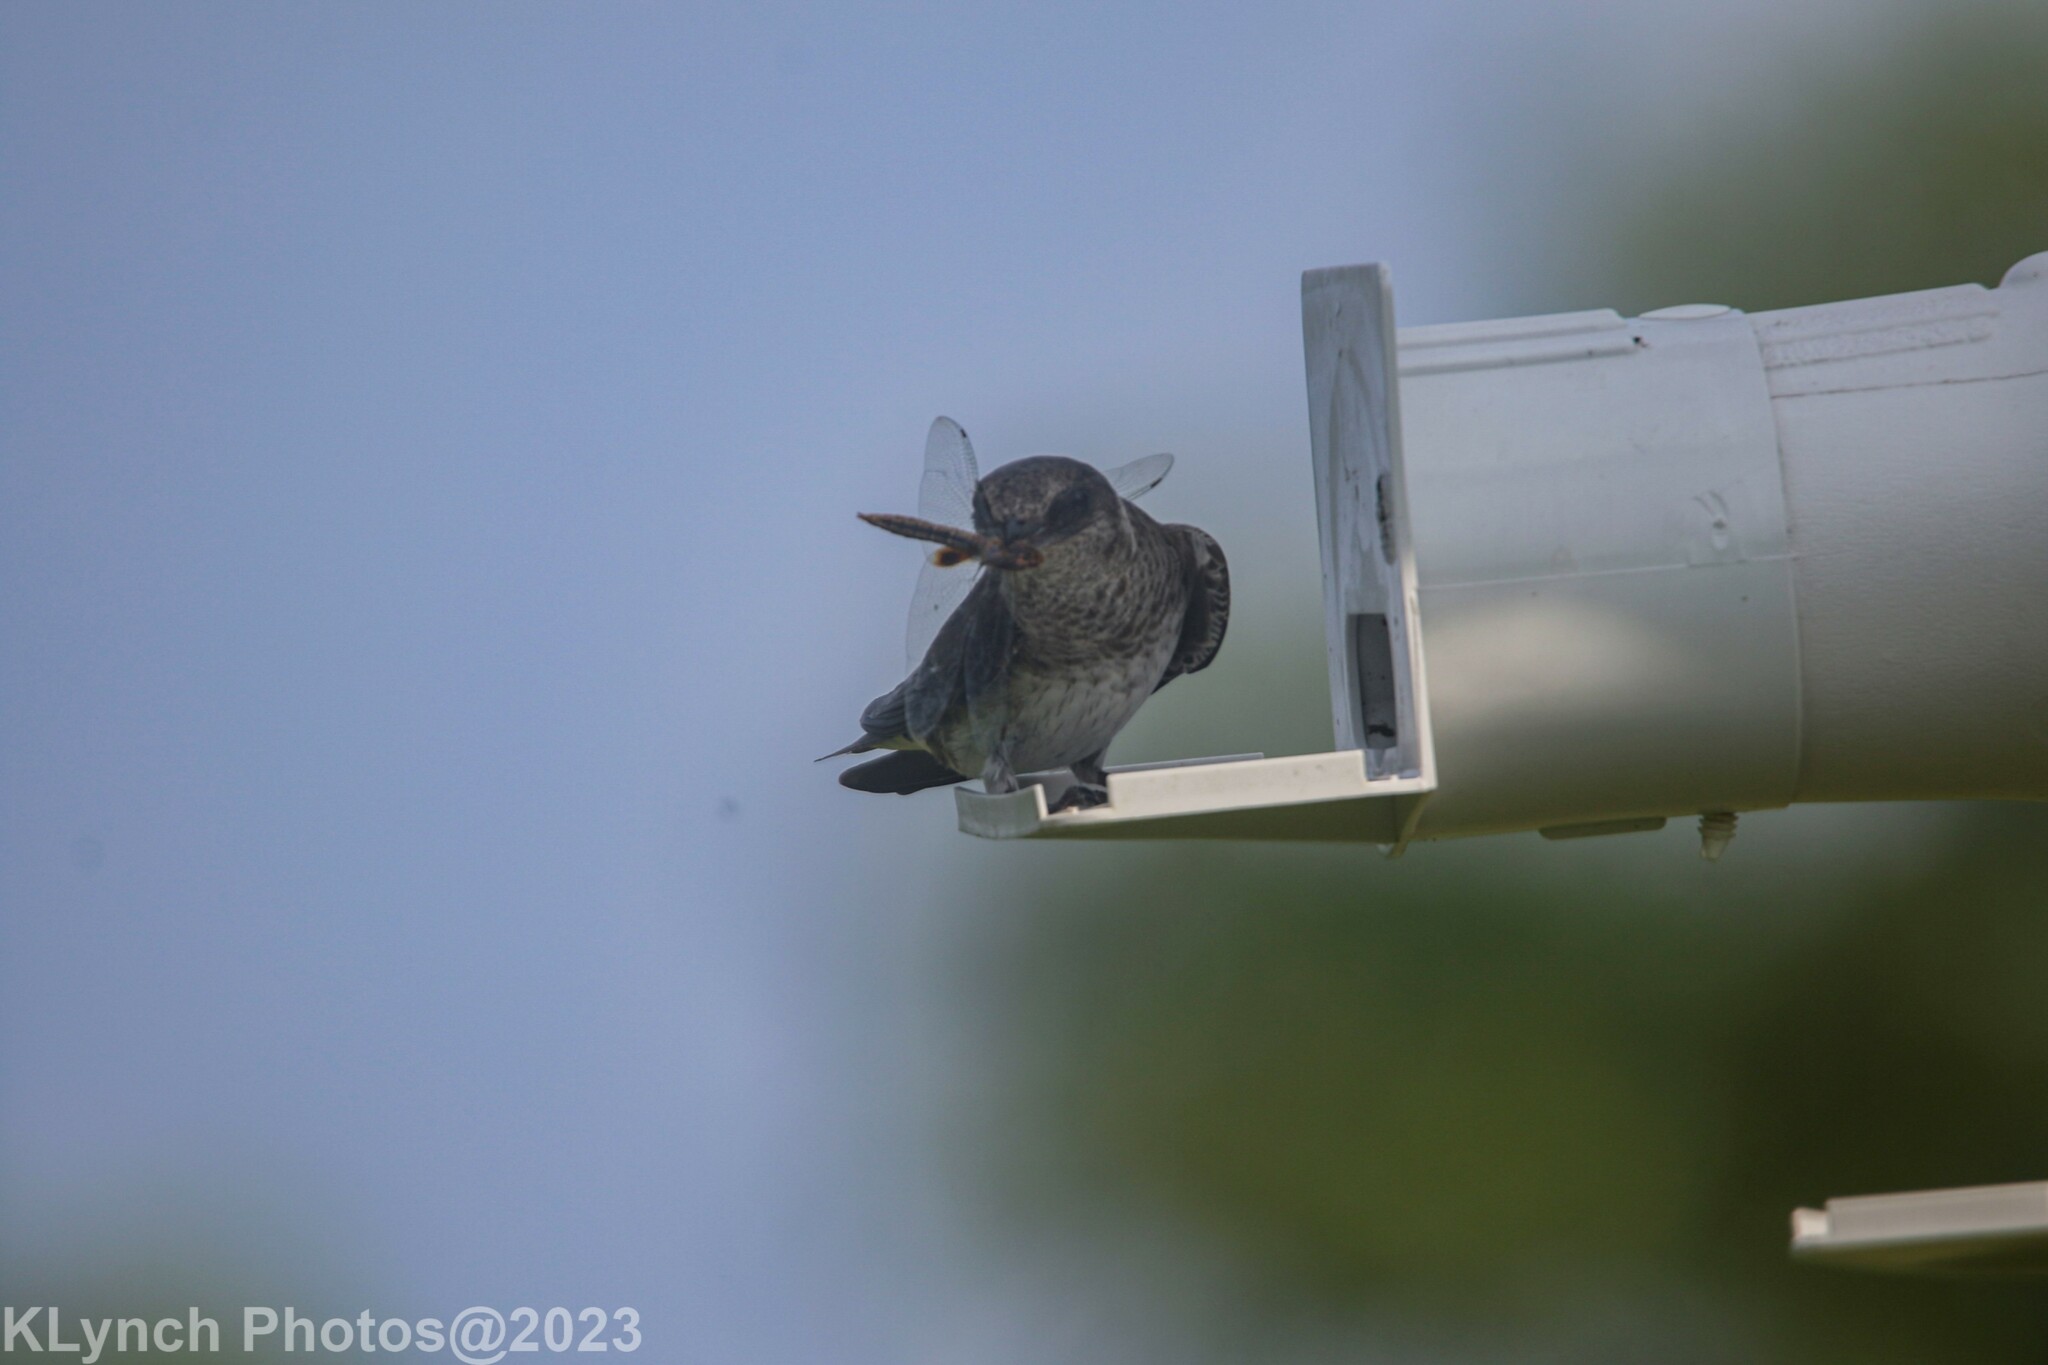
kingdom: Animalia
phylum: Chordata
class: Aves
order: Passeriformes
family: Hirundinidae
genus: Progne
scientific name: Progne subis
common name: Purple martin
